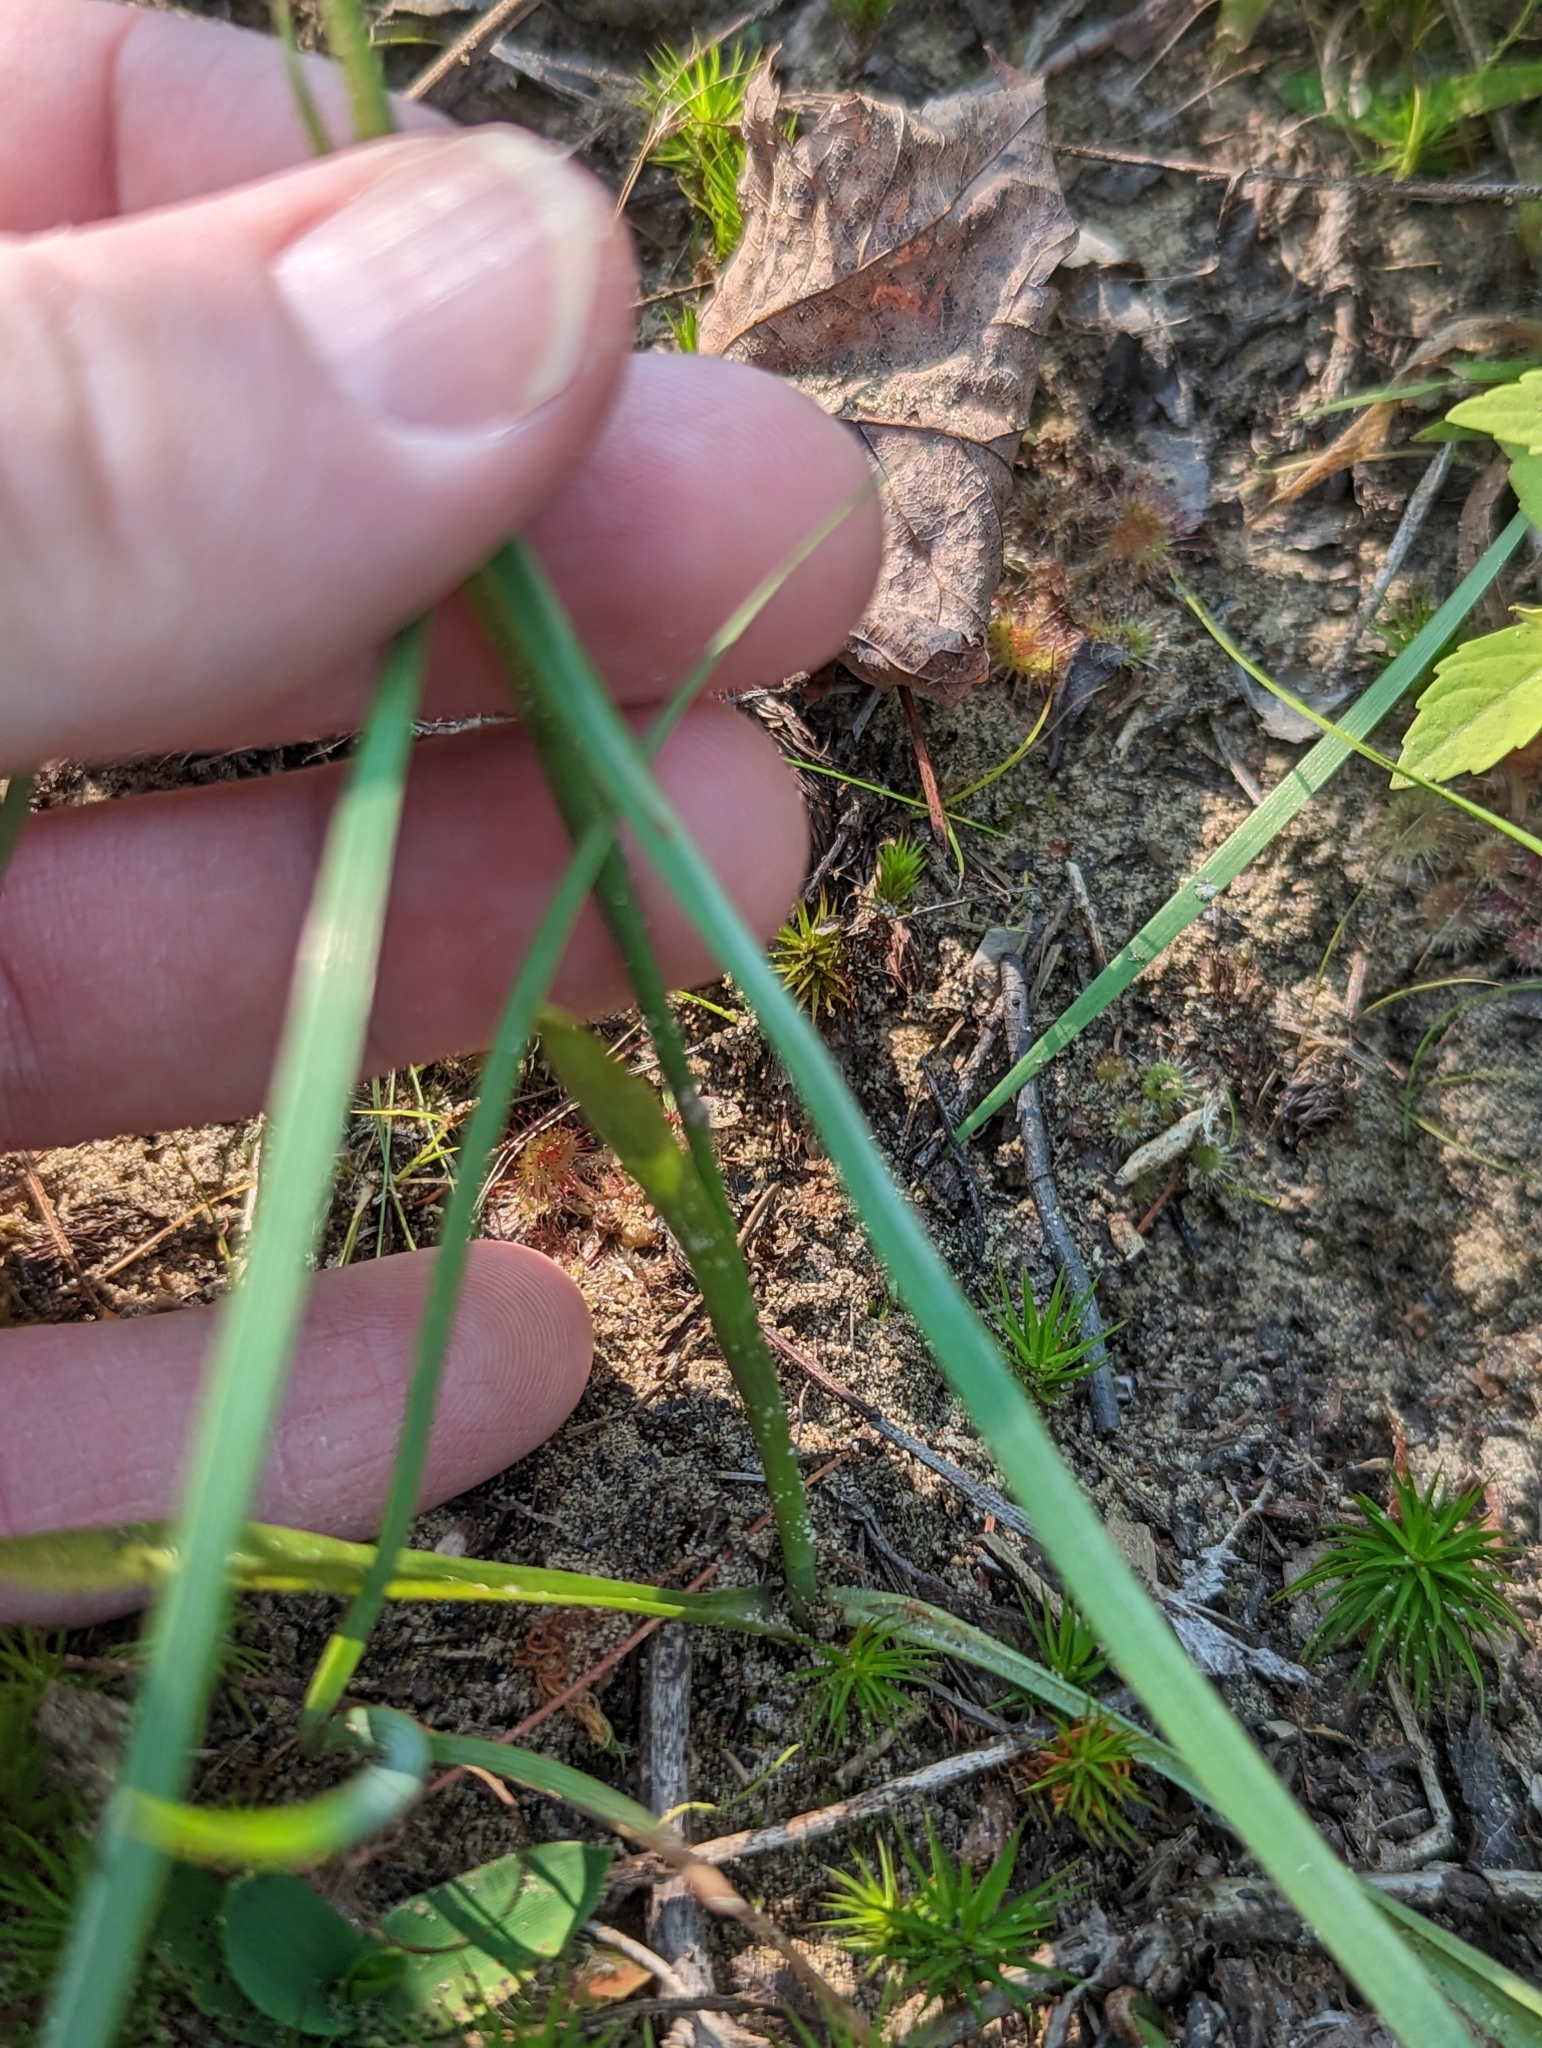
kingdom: Plantae
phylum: Tracheophyta
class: Liliopsida
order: Asparagales
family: Orchidaceae
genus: Spiranthes
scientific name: Spiranthes incurva
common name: Sphinx ladies'-tresses
